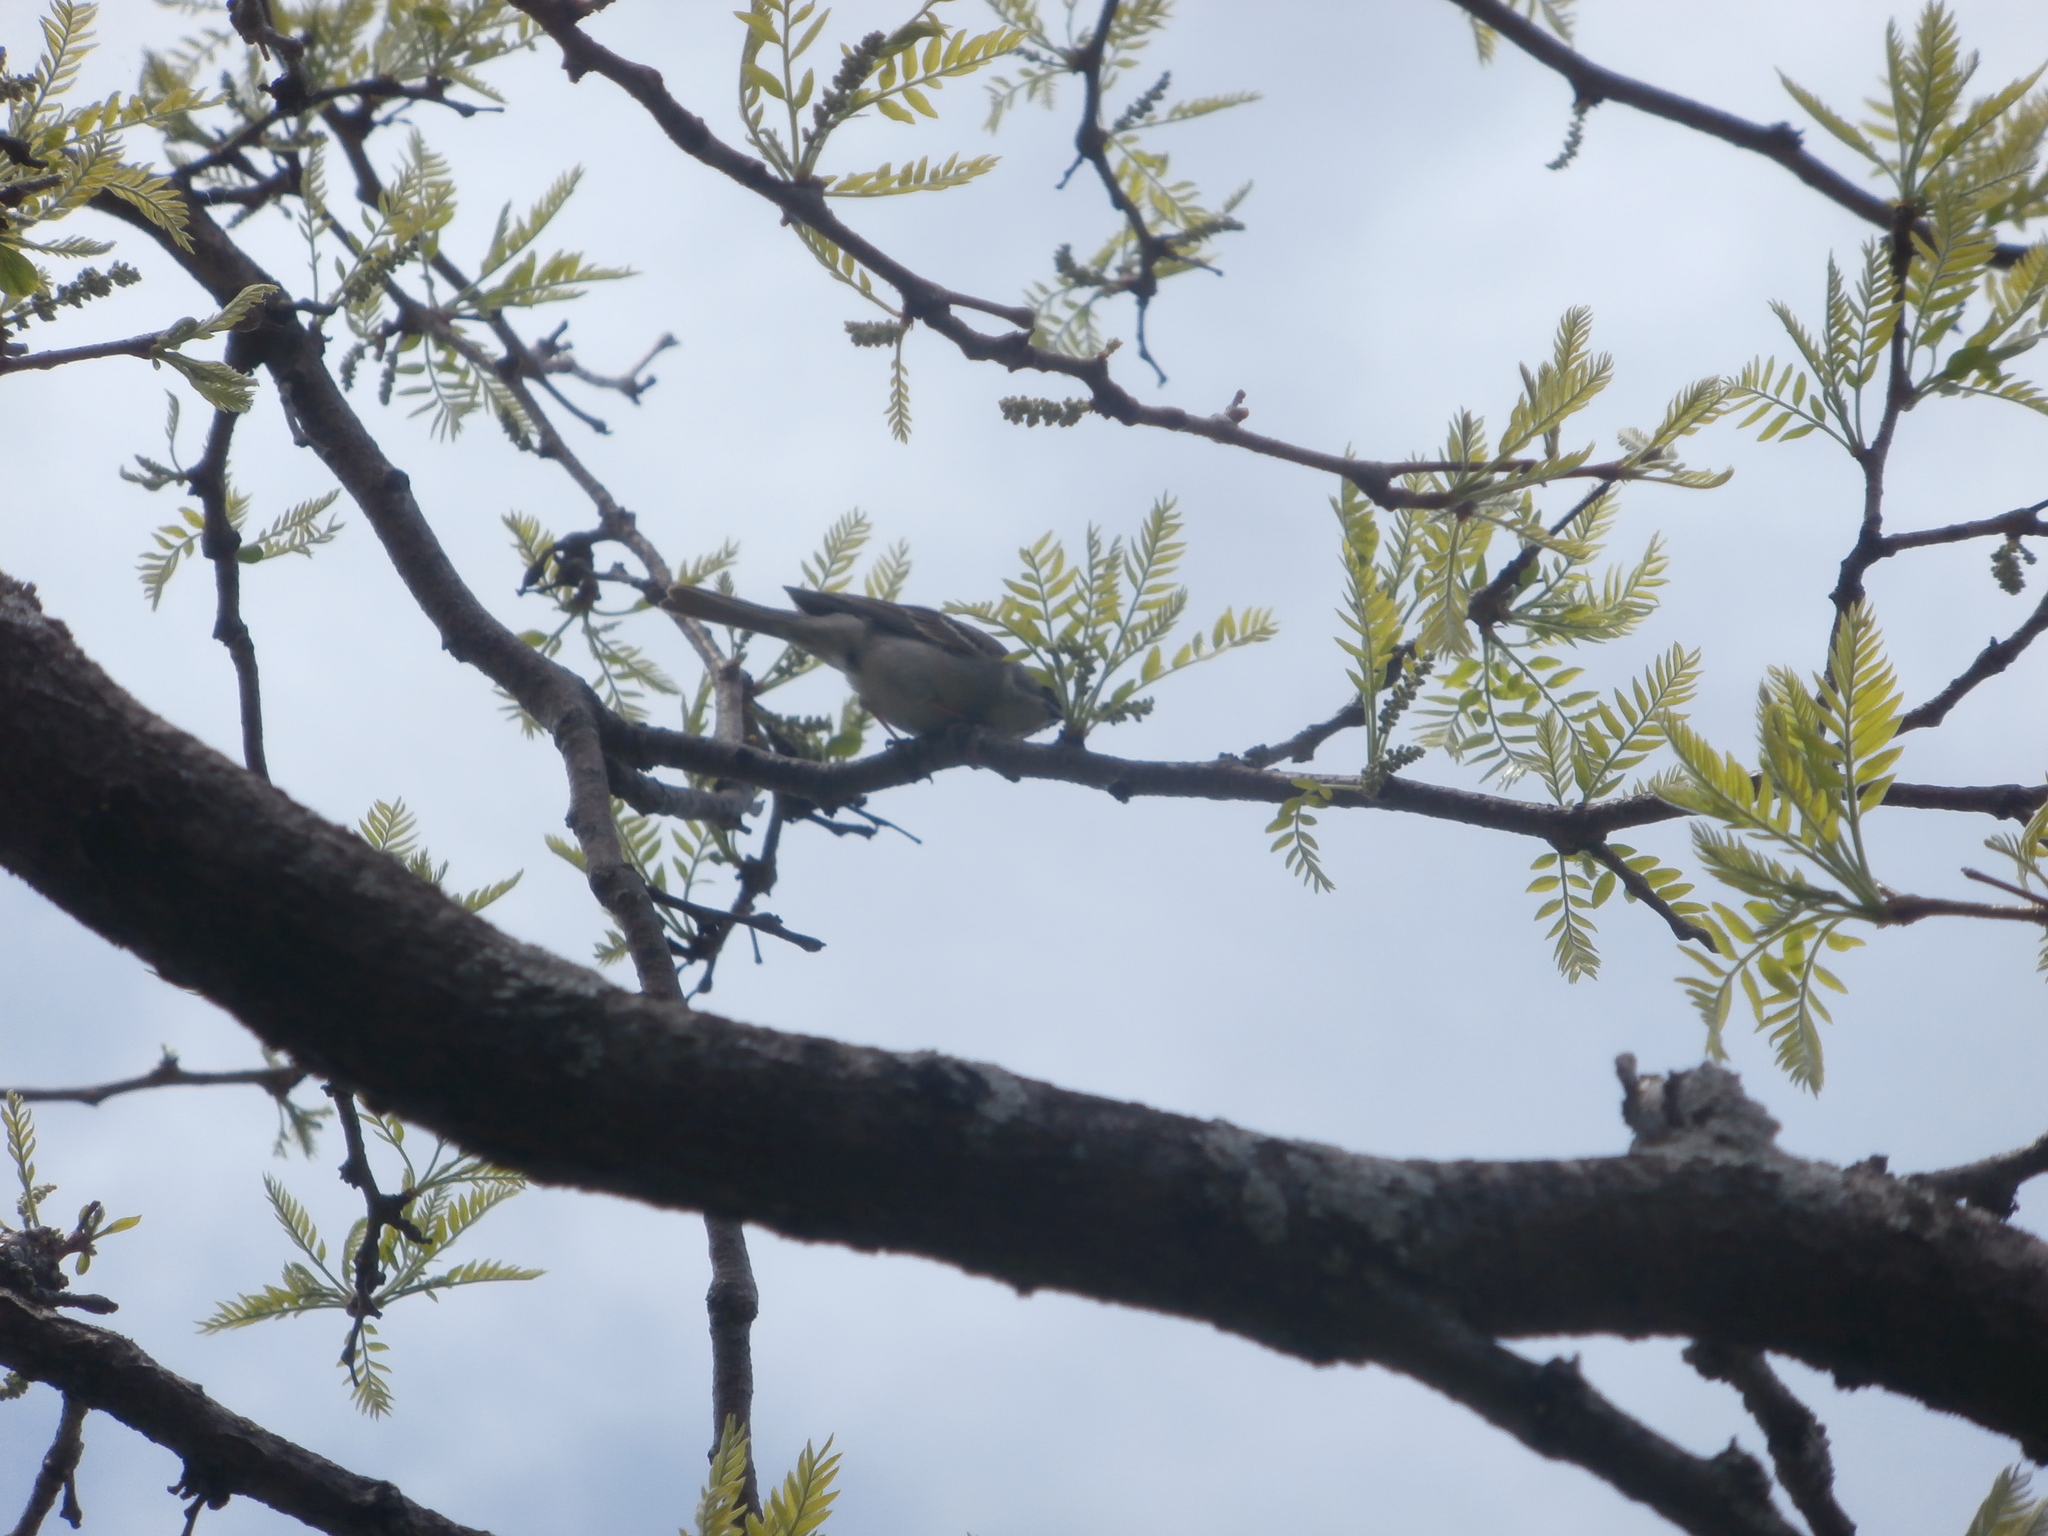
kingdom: Animalia
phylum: Chordata
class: Aves
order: Passeriformes
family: Passerellidae
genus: Spizella
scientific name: Spizella passerina
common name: Chipping sparrow
